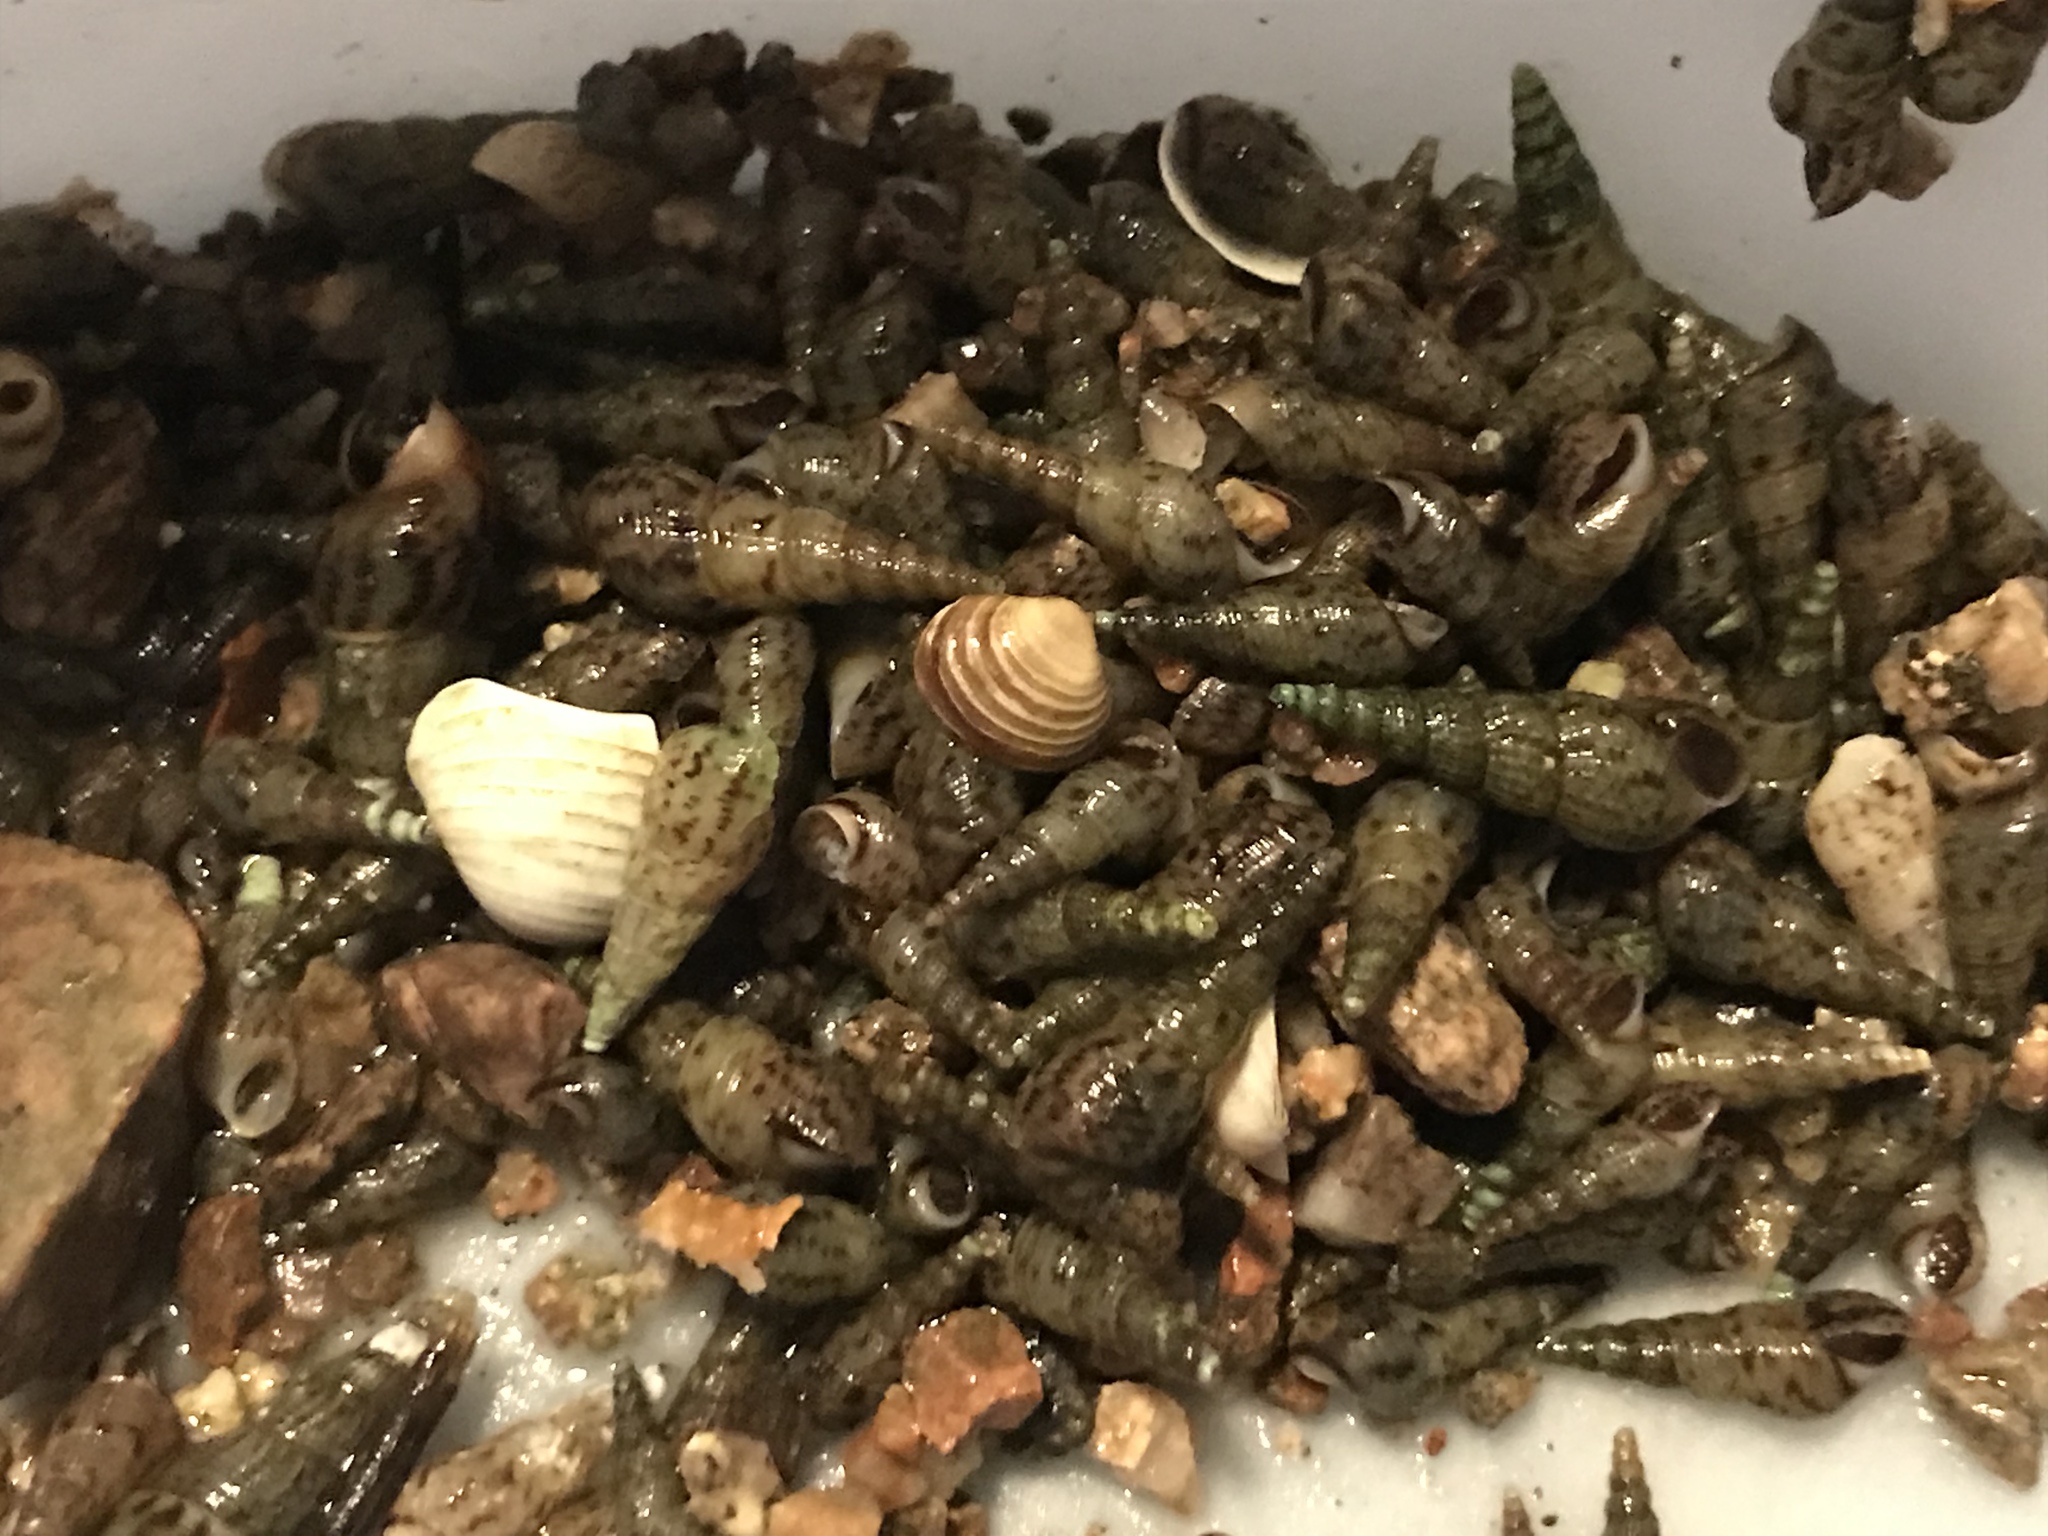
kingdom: Animalia
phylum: Mollusca
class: Gastropoda
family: Thiaridae
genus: Melanoides
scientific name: Melanoides tuberculata
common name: Red-rim melania
